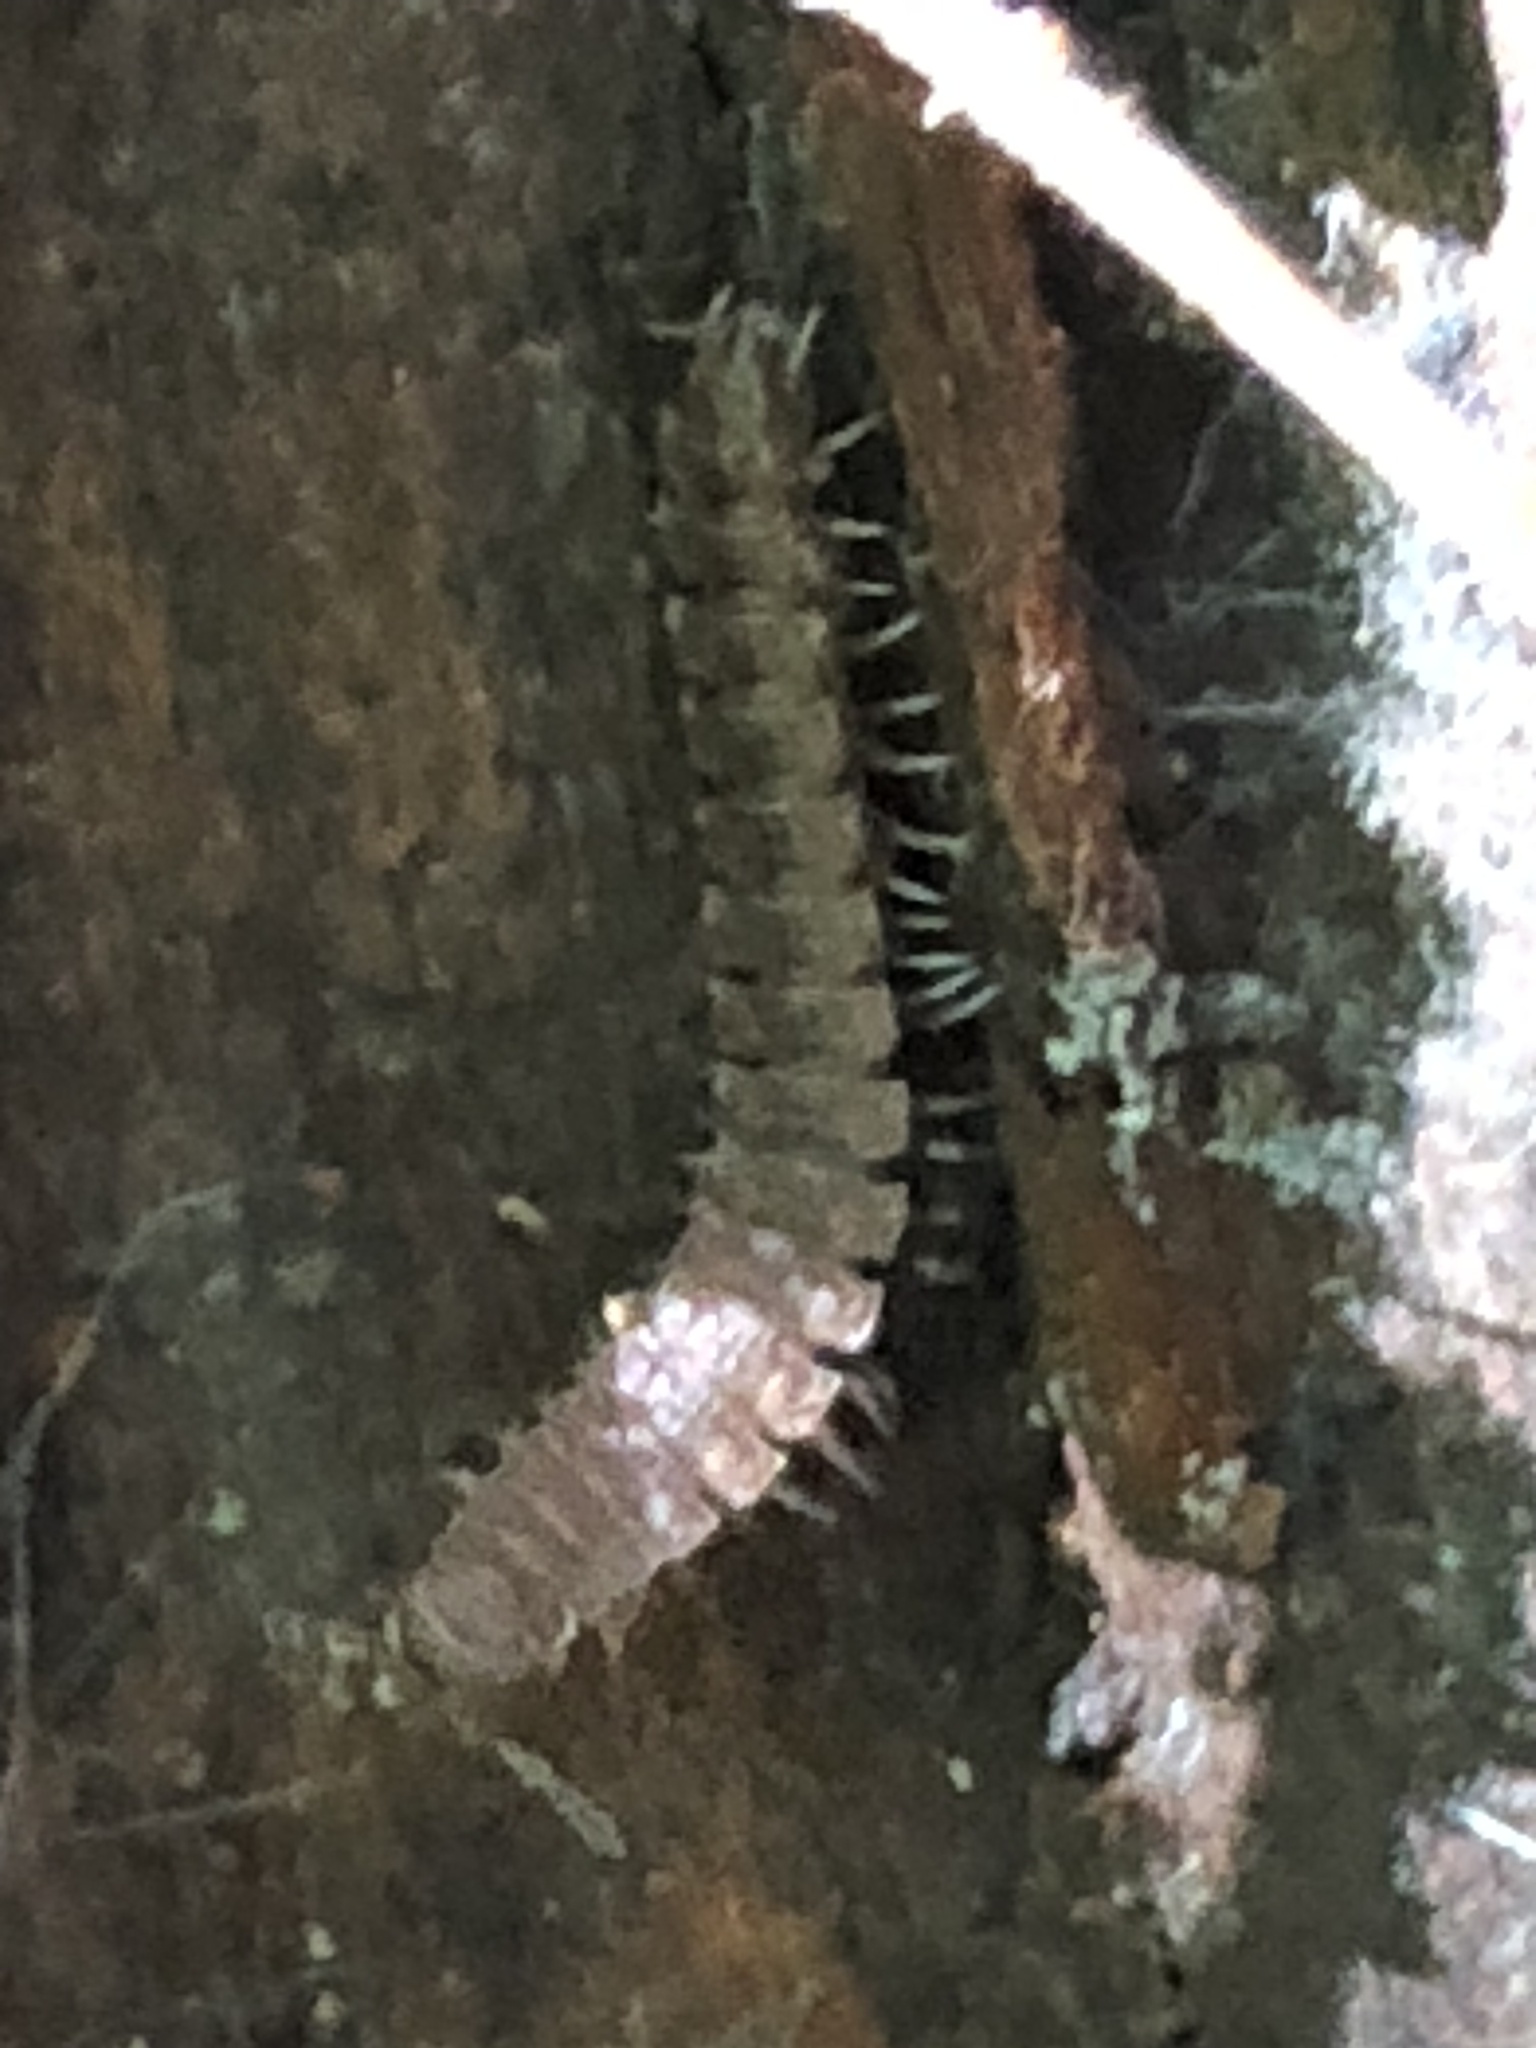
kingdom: Animalia
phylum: Arthropoda
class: Diplopoda
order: Polydesmida
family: Polydesmidae
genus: Pseudopolydesmus
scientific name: Pseudopolydesmus serratus
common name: Common pink flat-back millipede
